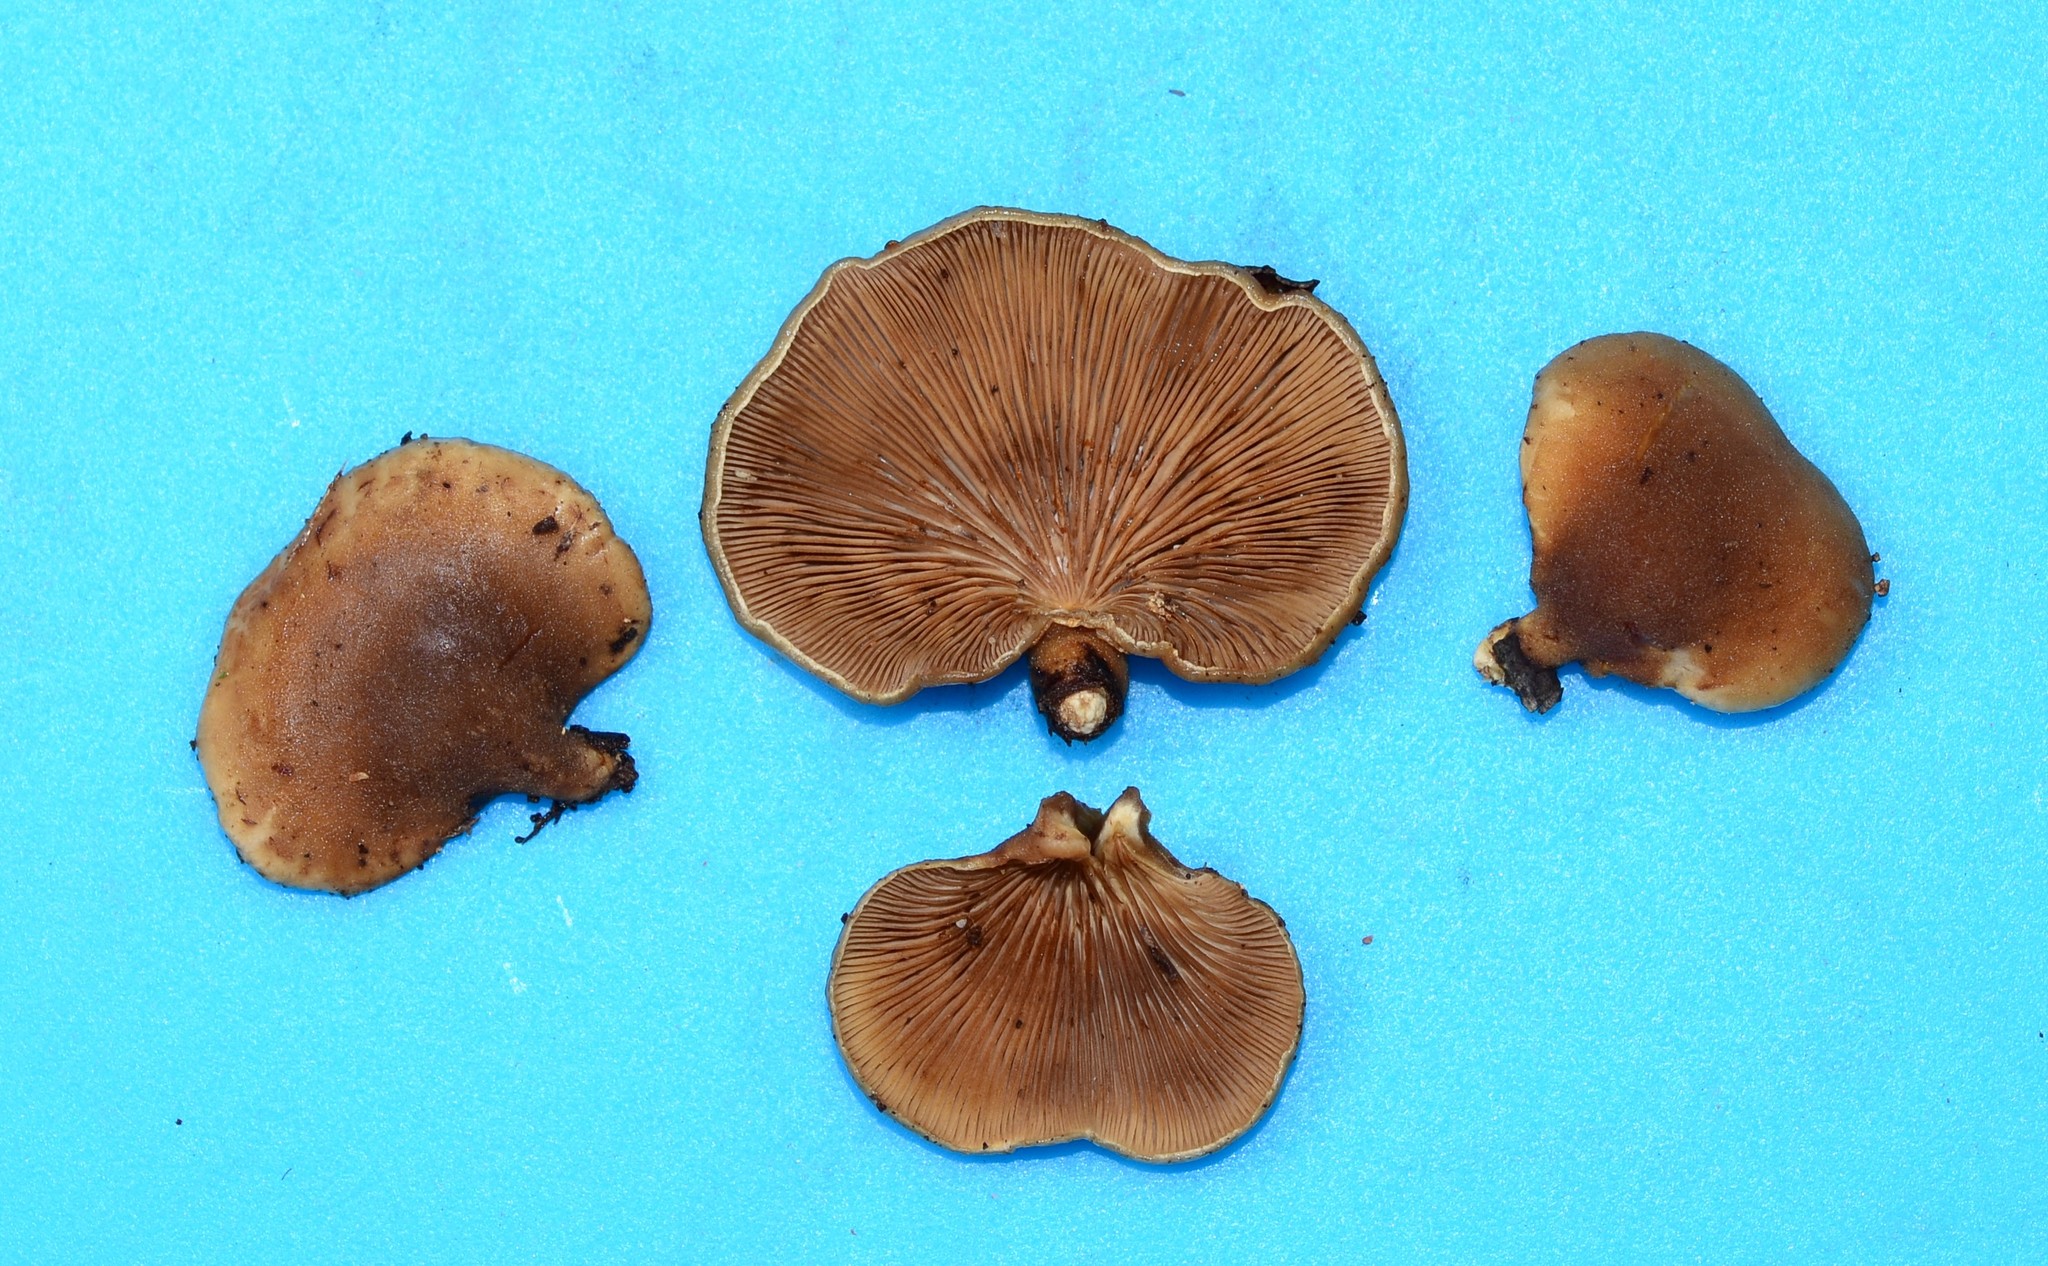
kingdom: Fungi
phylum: Basidiomycota
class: Agaricomycetes
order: Agaricales
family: Mycenaceae
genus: Tectella
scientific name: Tectella patellaris
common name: Veiled panus
